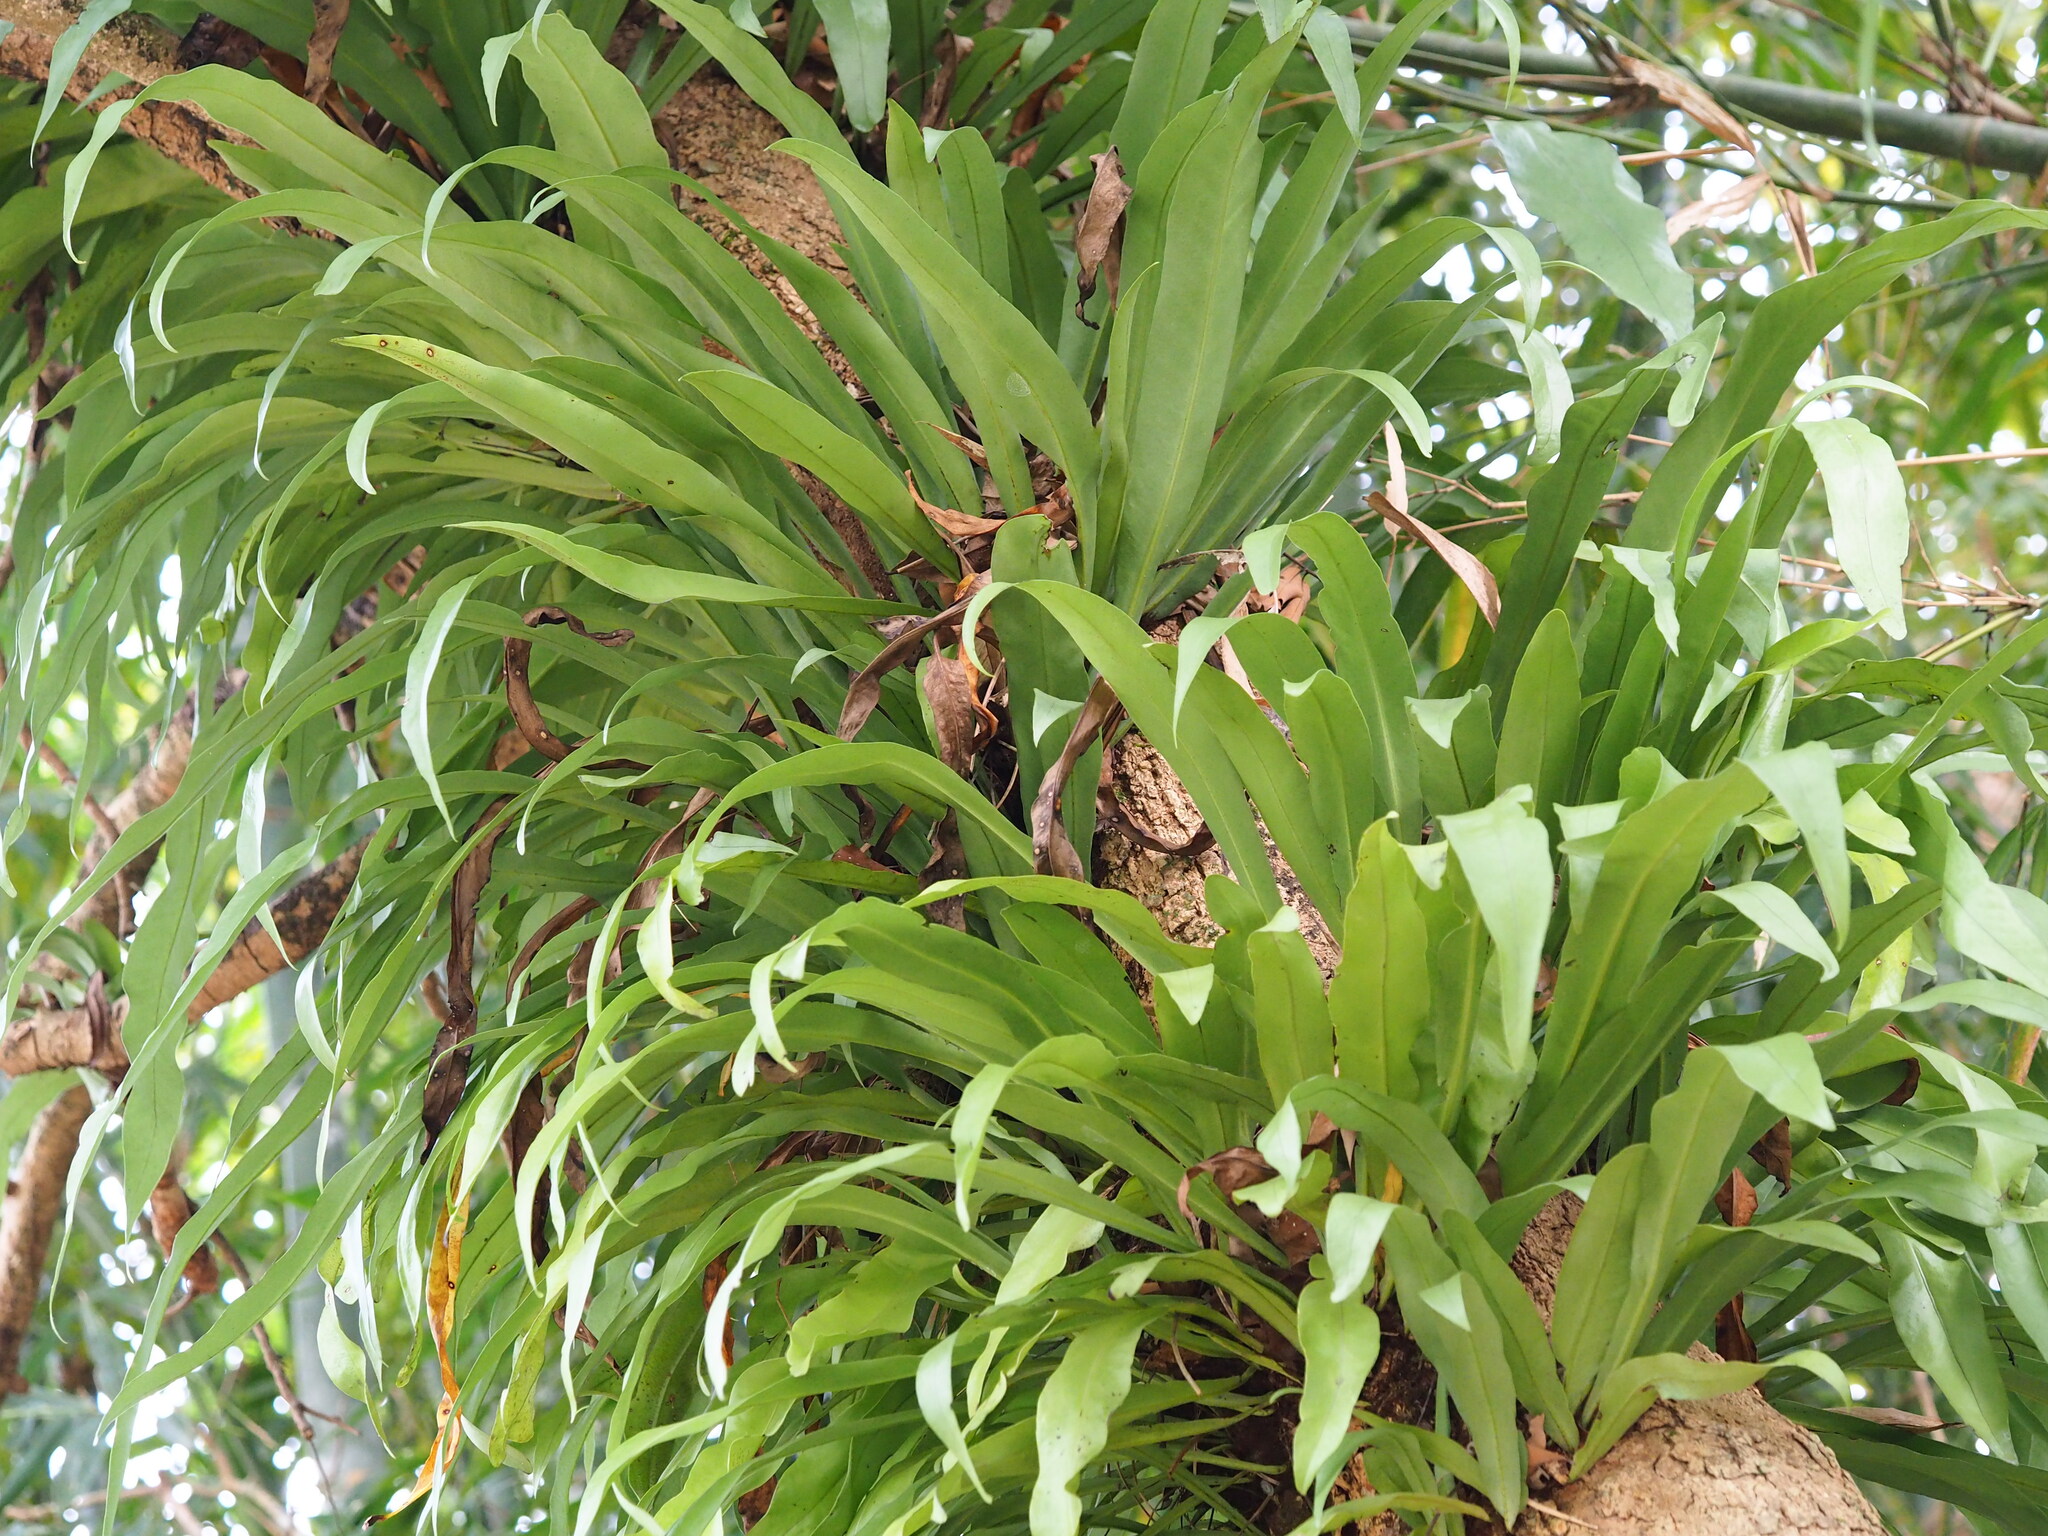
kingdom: Plantae
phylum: Tracheophyta
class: Polypodiopsida
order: Polypodiales
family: Polypodiaceae
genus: Microsorum
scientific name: Microsorum punctatum
